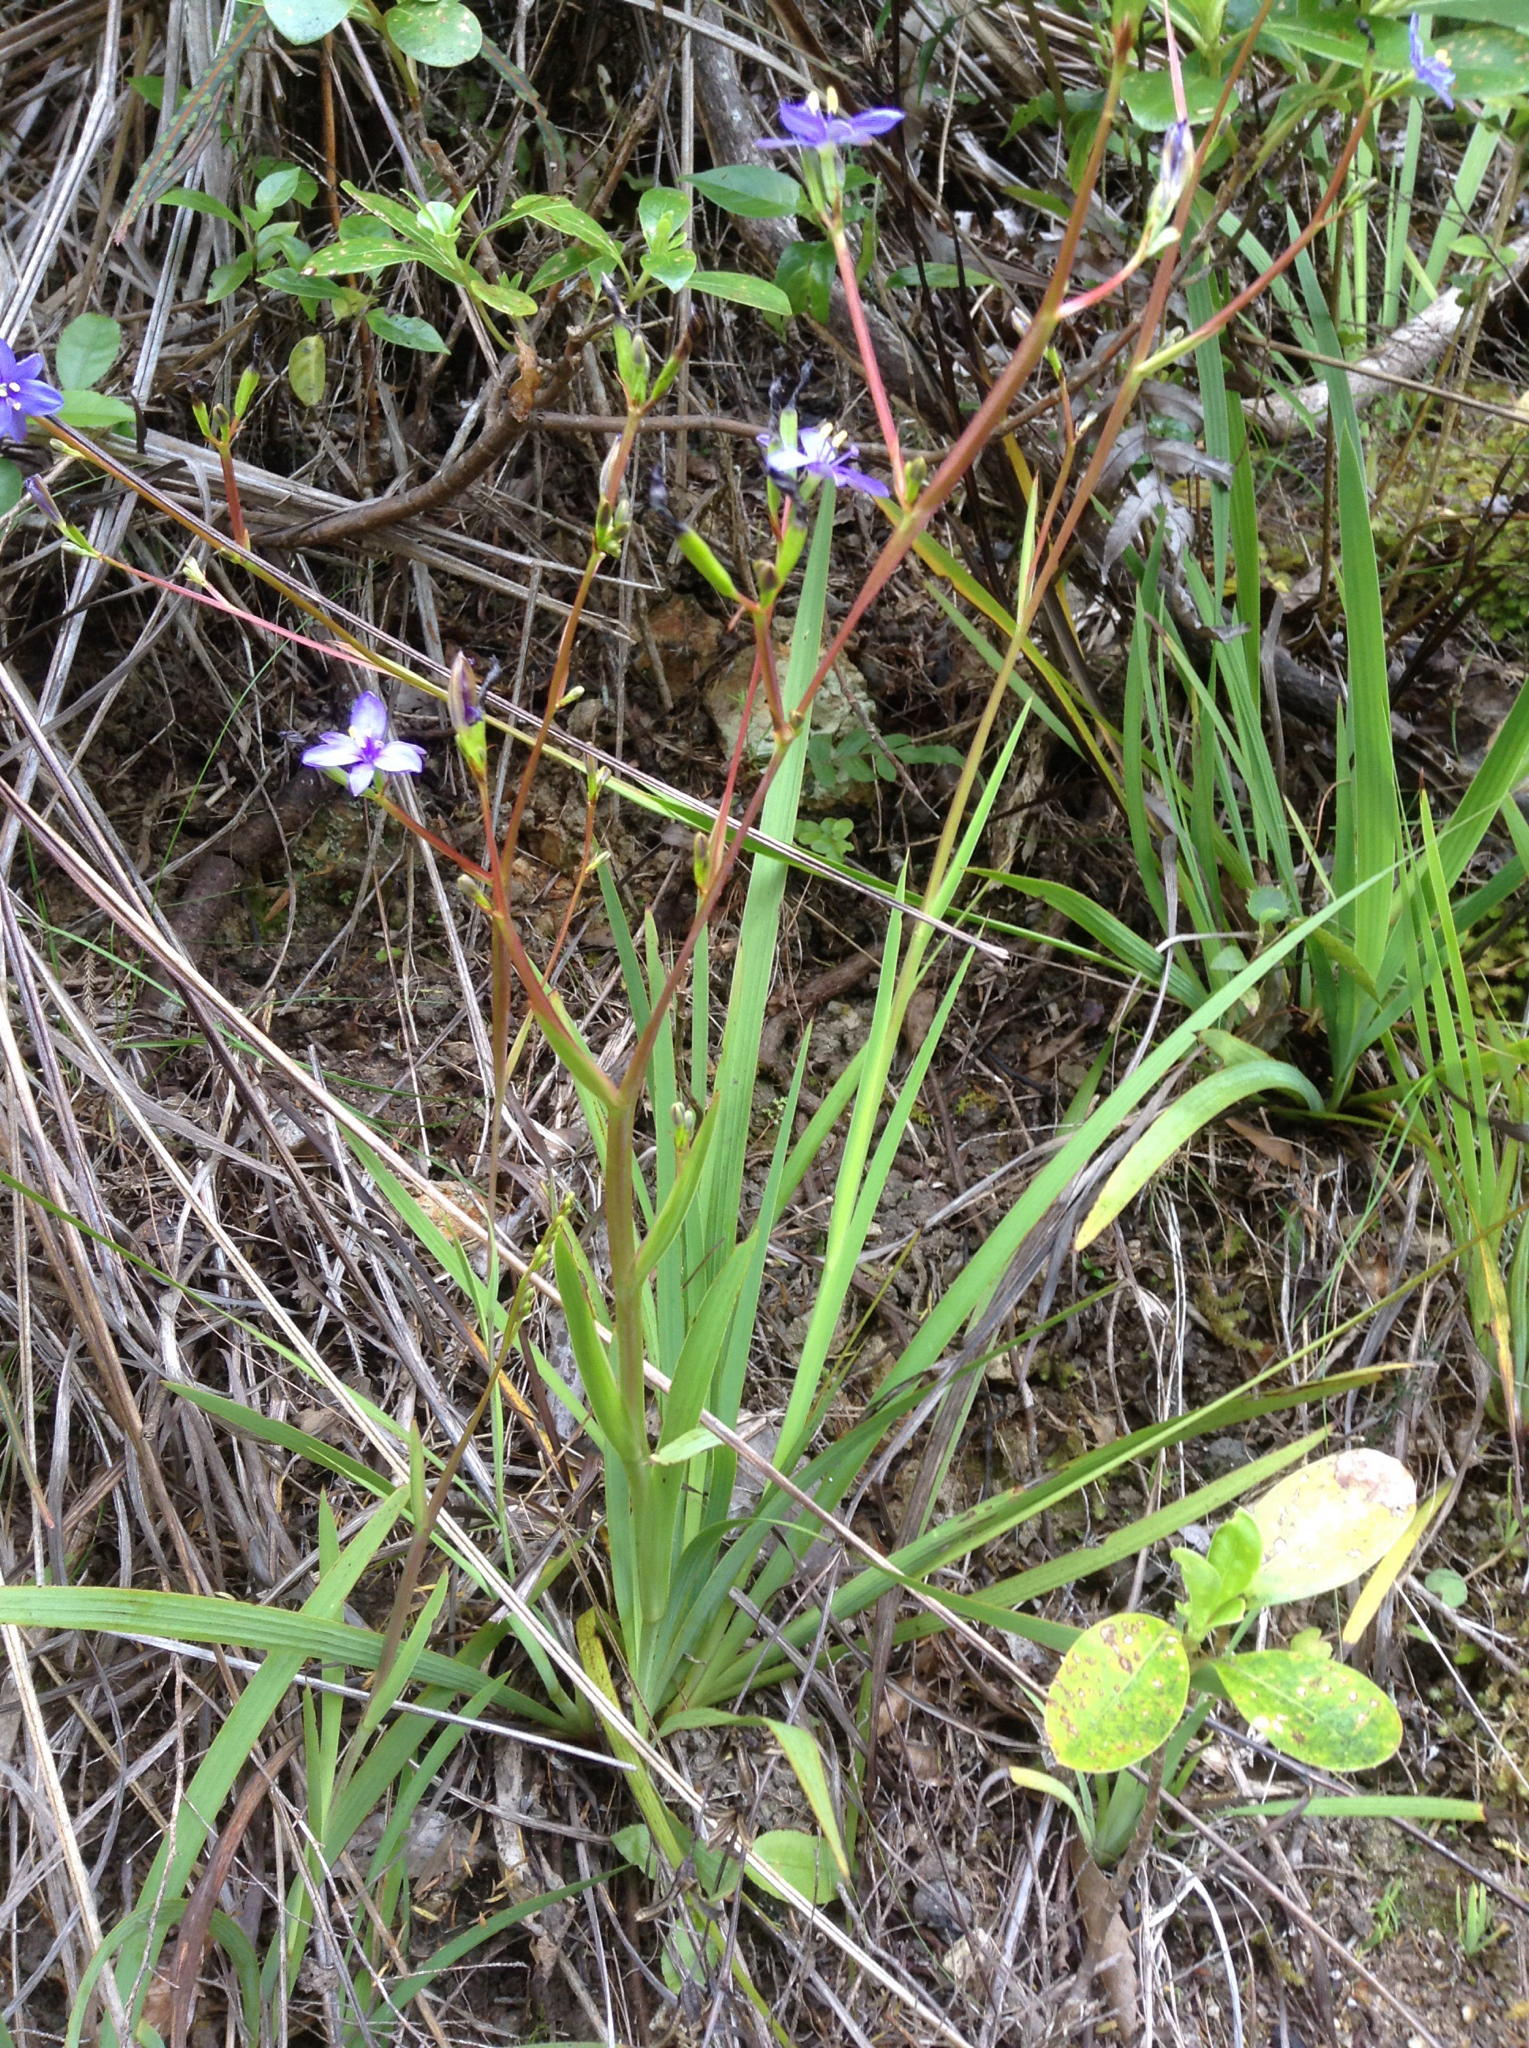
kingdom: Plantae
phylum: Tracheophyta
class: Liliopsida
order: Asparagales
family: Iridaceae
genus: Aristea
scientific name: Aristea ecklonii
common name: Blue corn-lily
